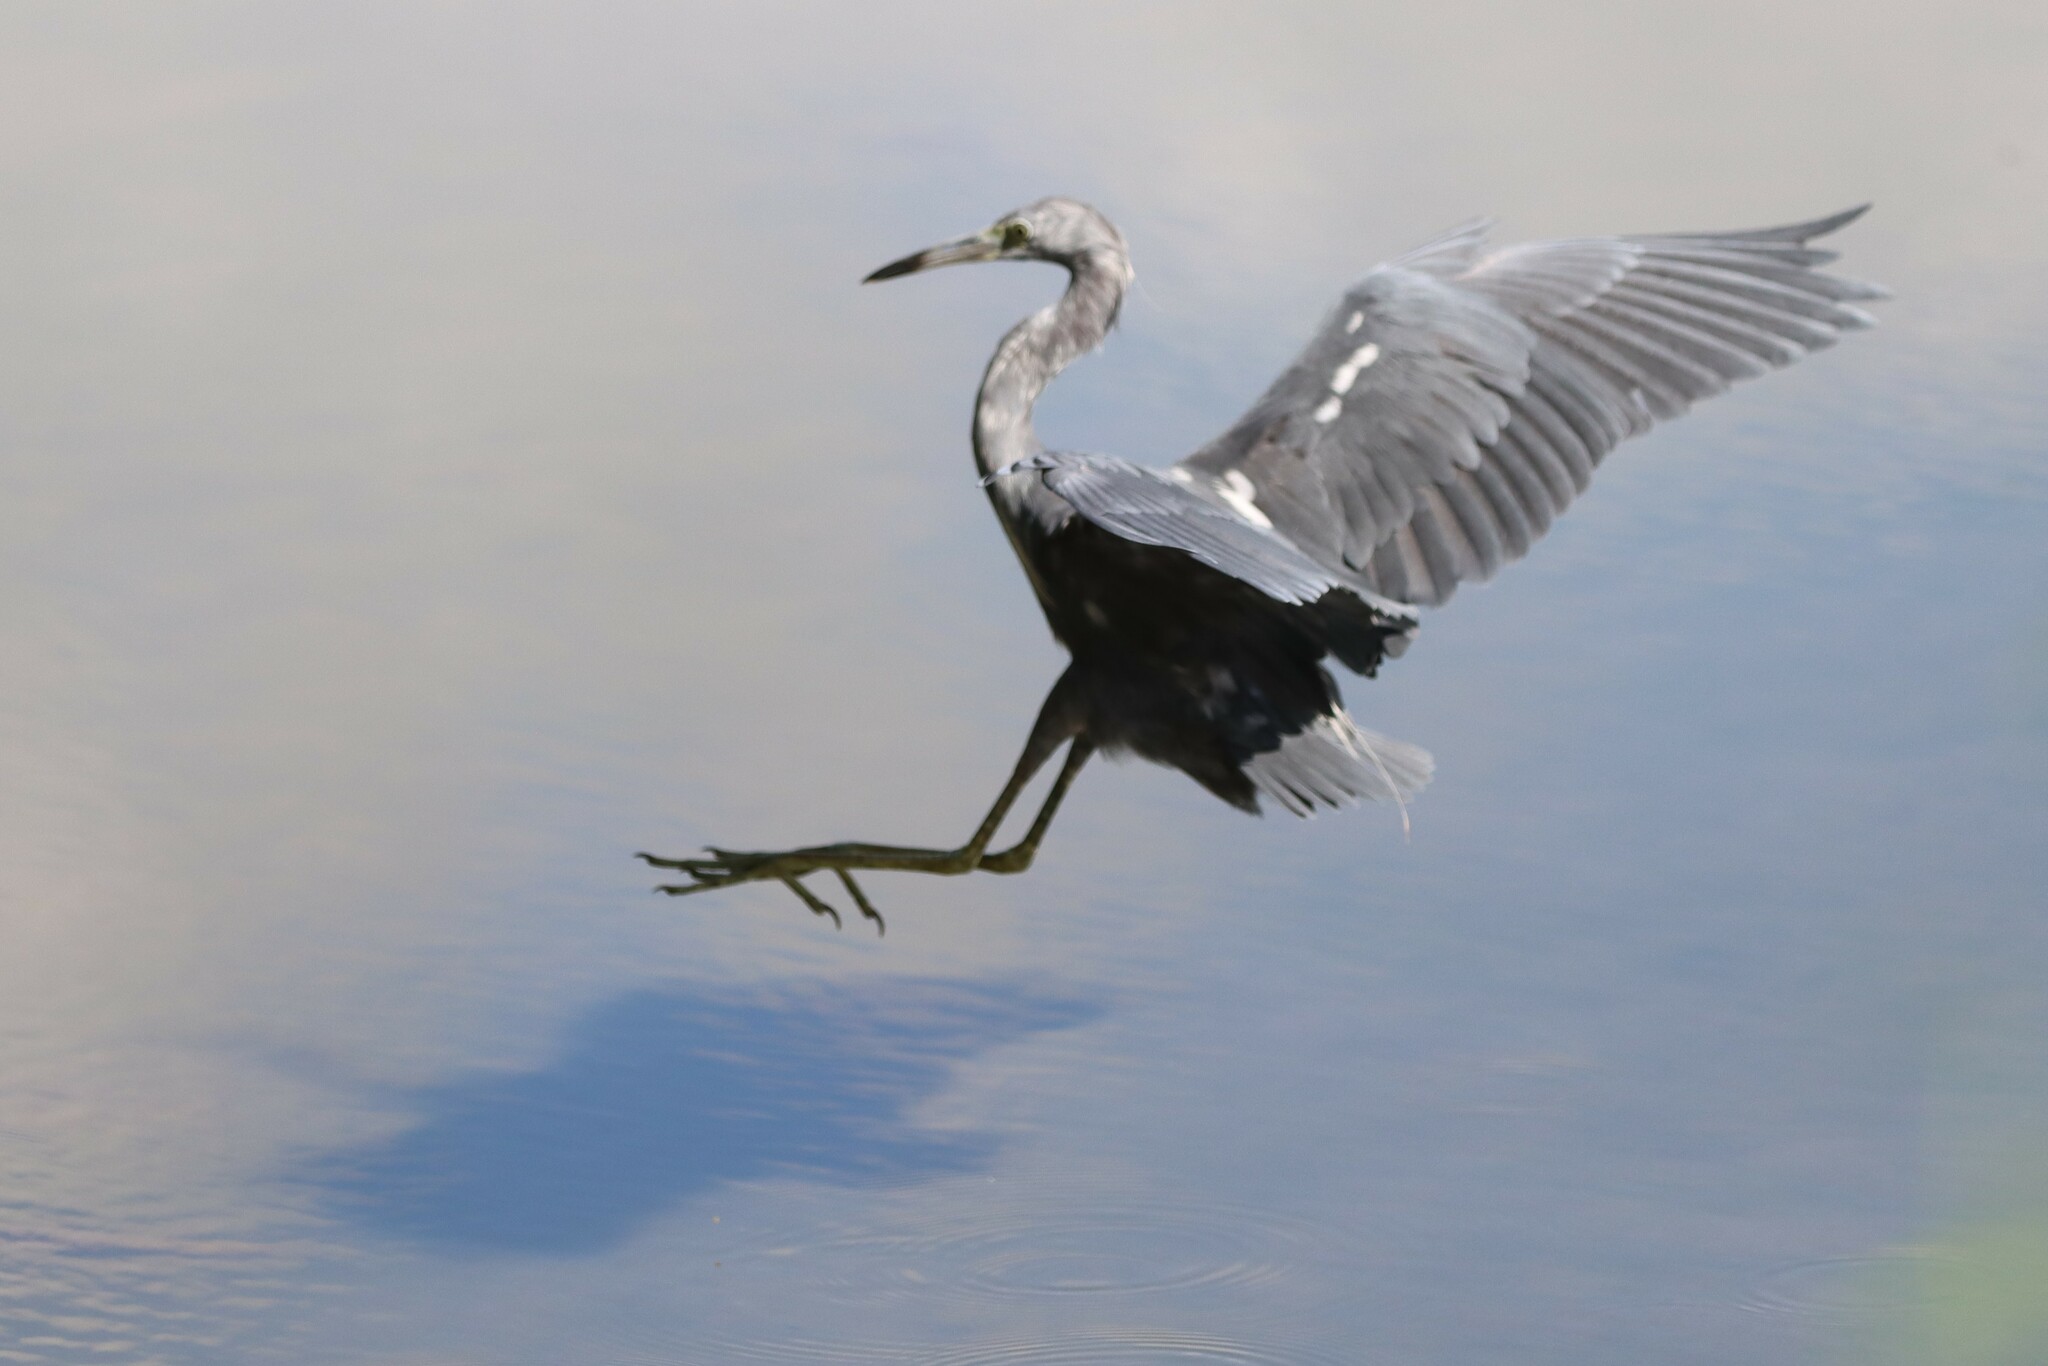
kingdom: Animalia
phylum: Chordata
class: Aves
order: Pelecaniformes
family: Ardeidae
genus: Egretta
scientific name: Egretta caerulea
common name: Little blue heron
